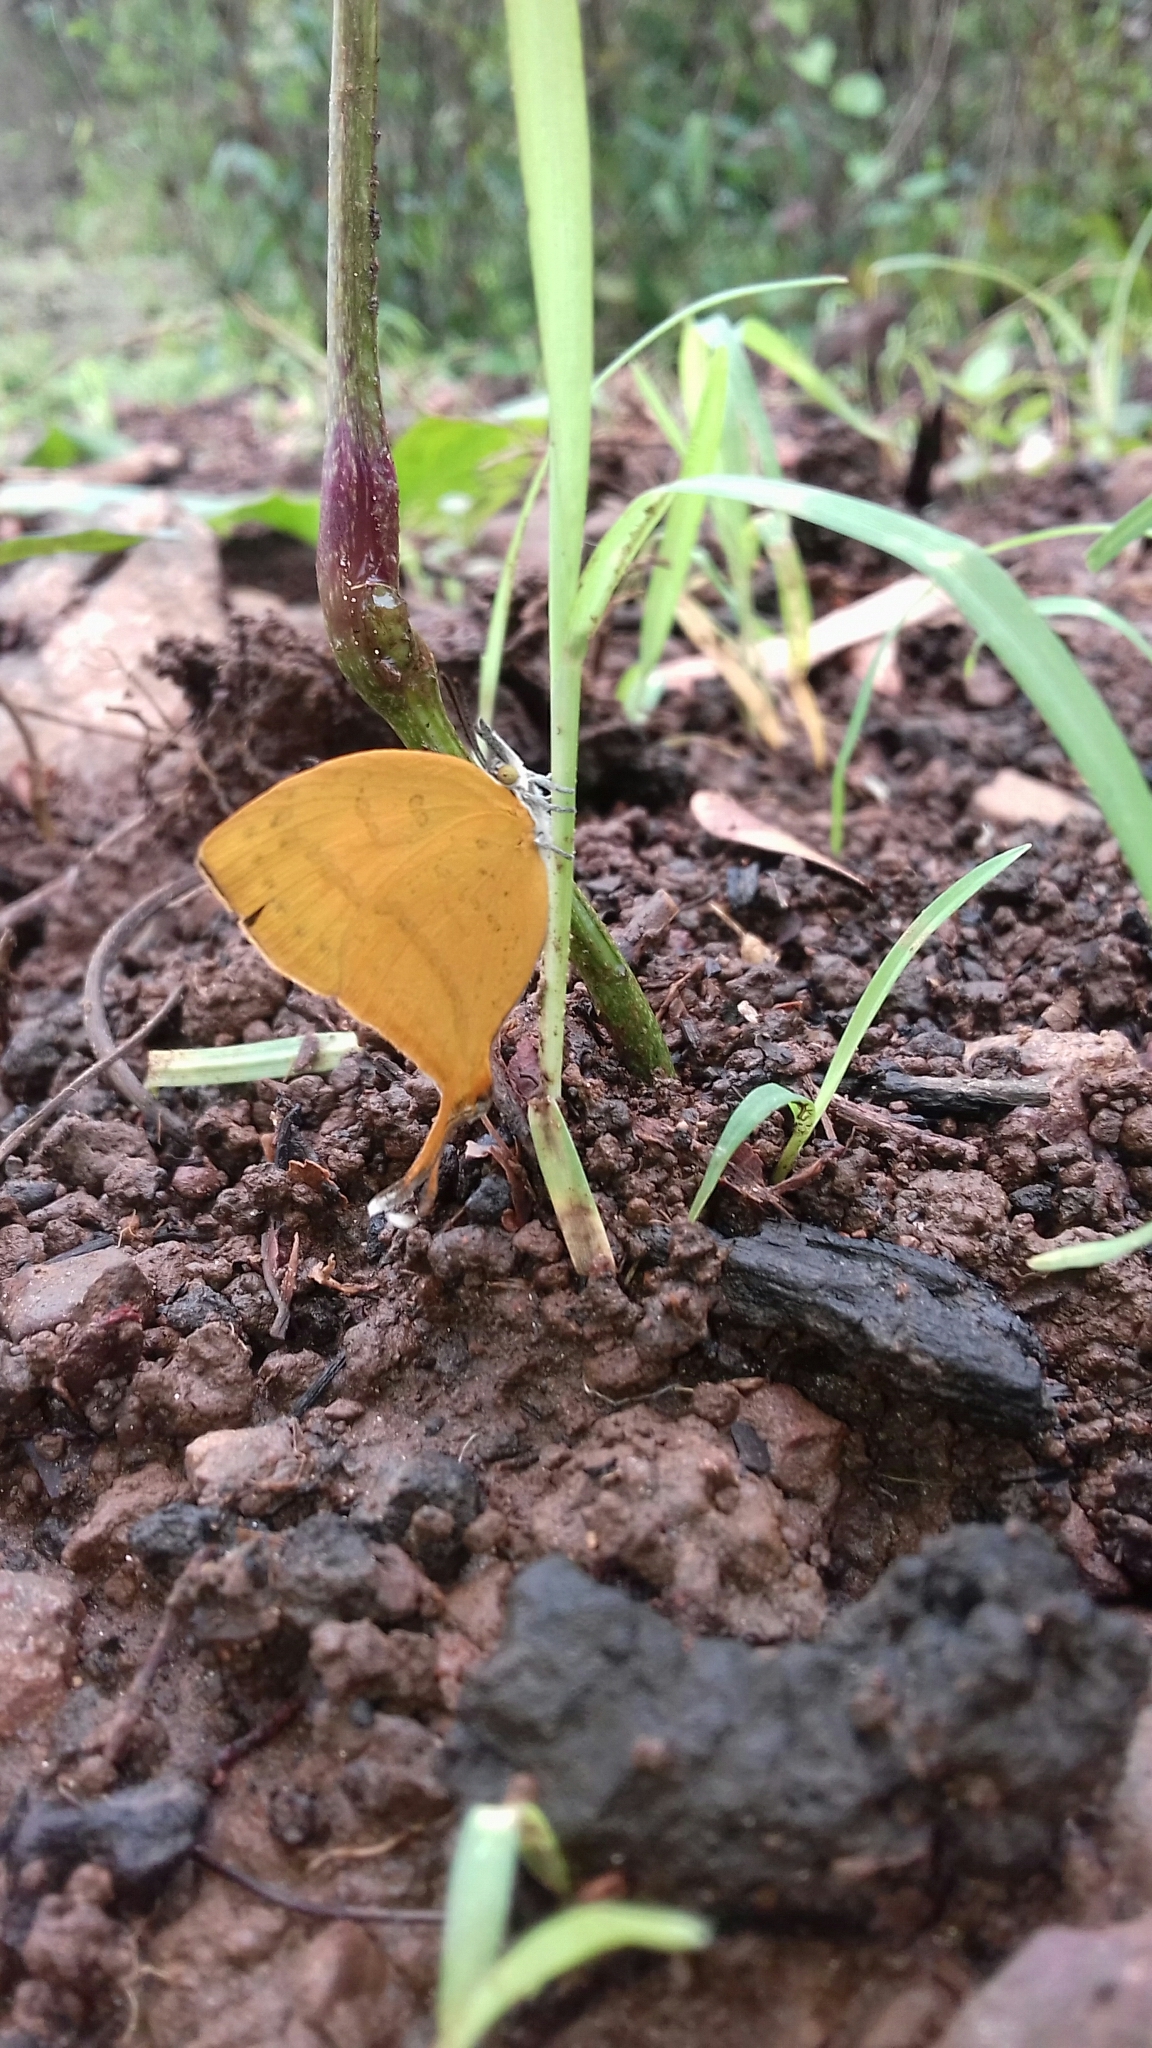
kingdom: Animalia
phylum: Arthropoda
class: Insecta
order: Lepidoptera
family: Lycaenidae
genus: Loxura
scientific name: Loxura atymnus
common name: Common yamfly
